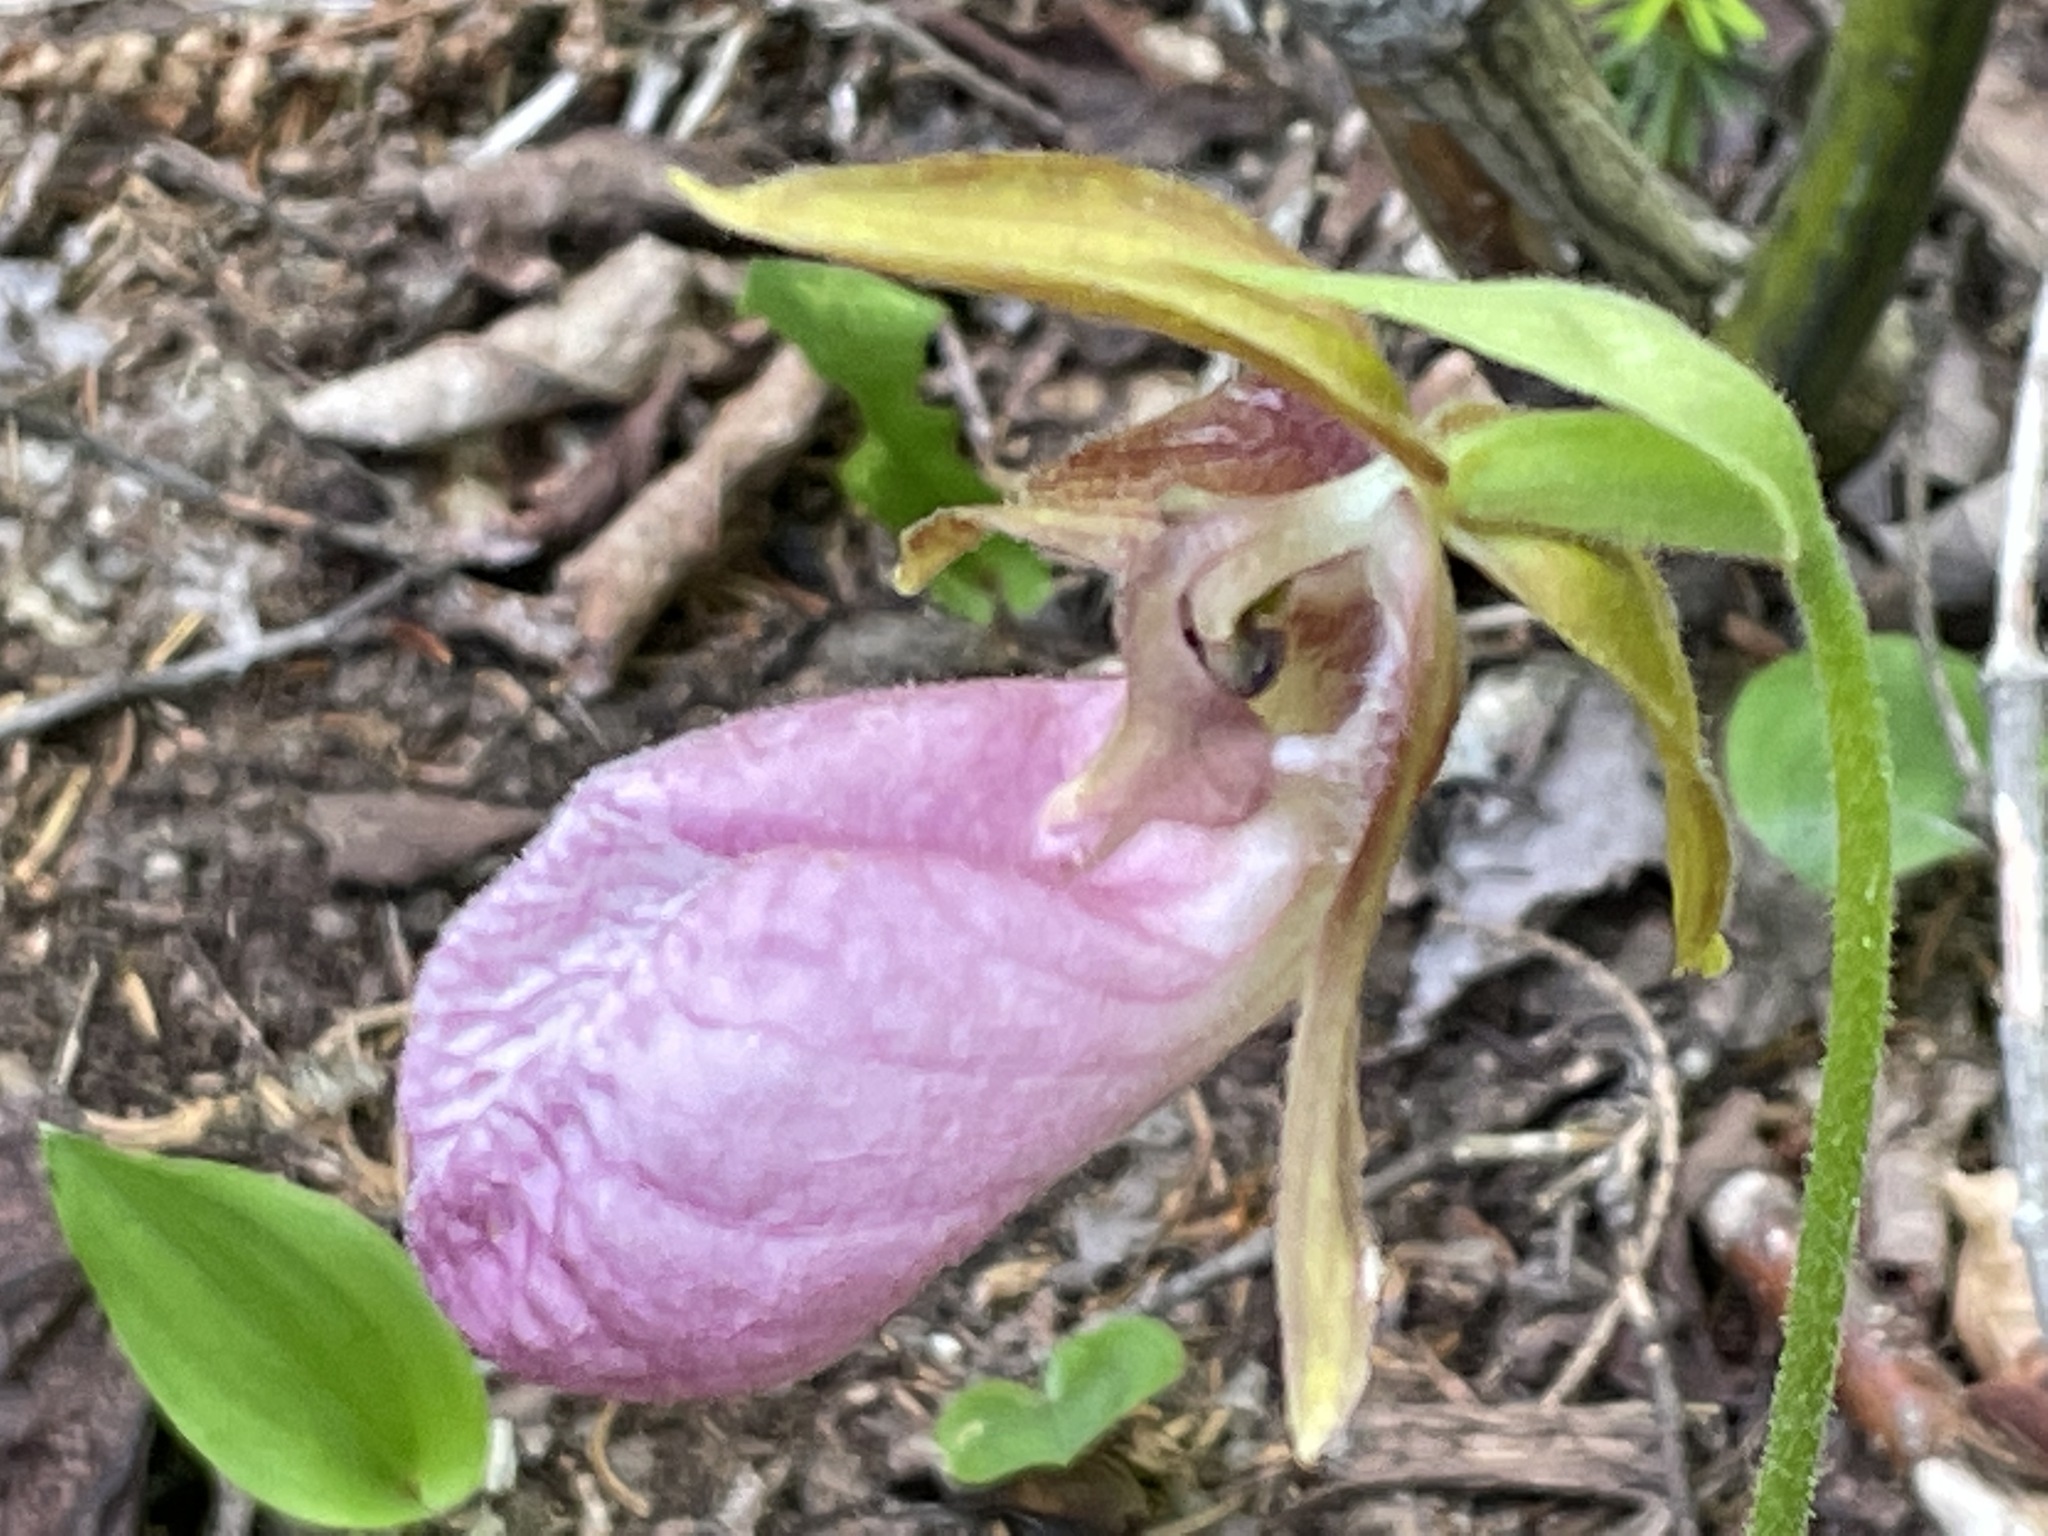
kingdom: Plantae
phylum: Tracheophyta
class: Liliopsida
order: Asparagales
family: Orchidaceae
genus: Cypripedium
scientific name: Cypripedium acaule
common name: Pink lady's-slipper
